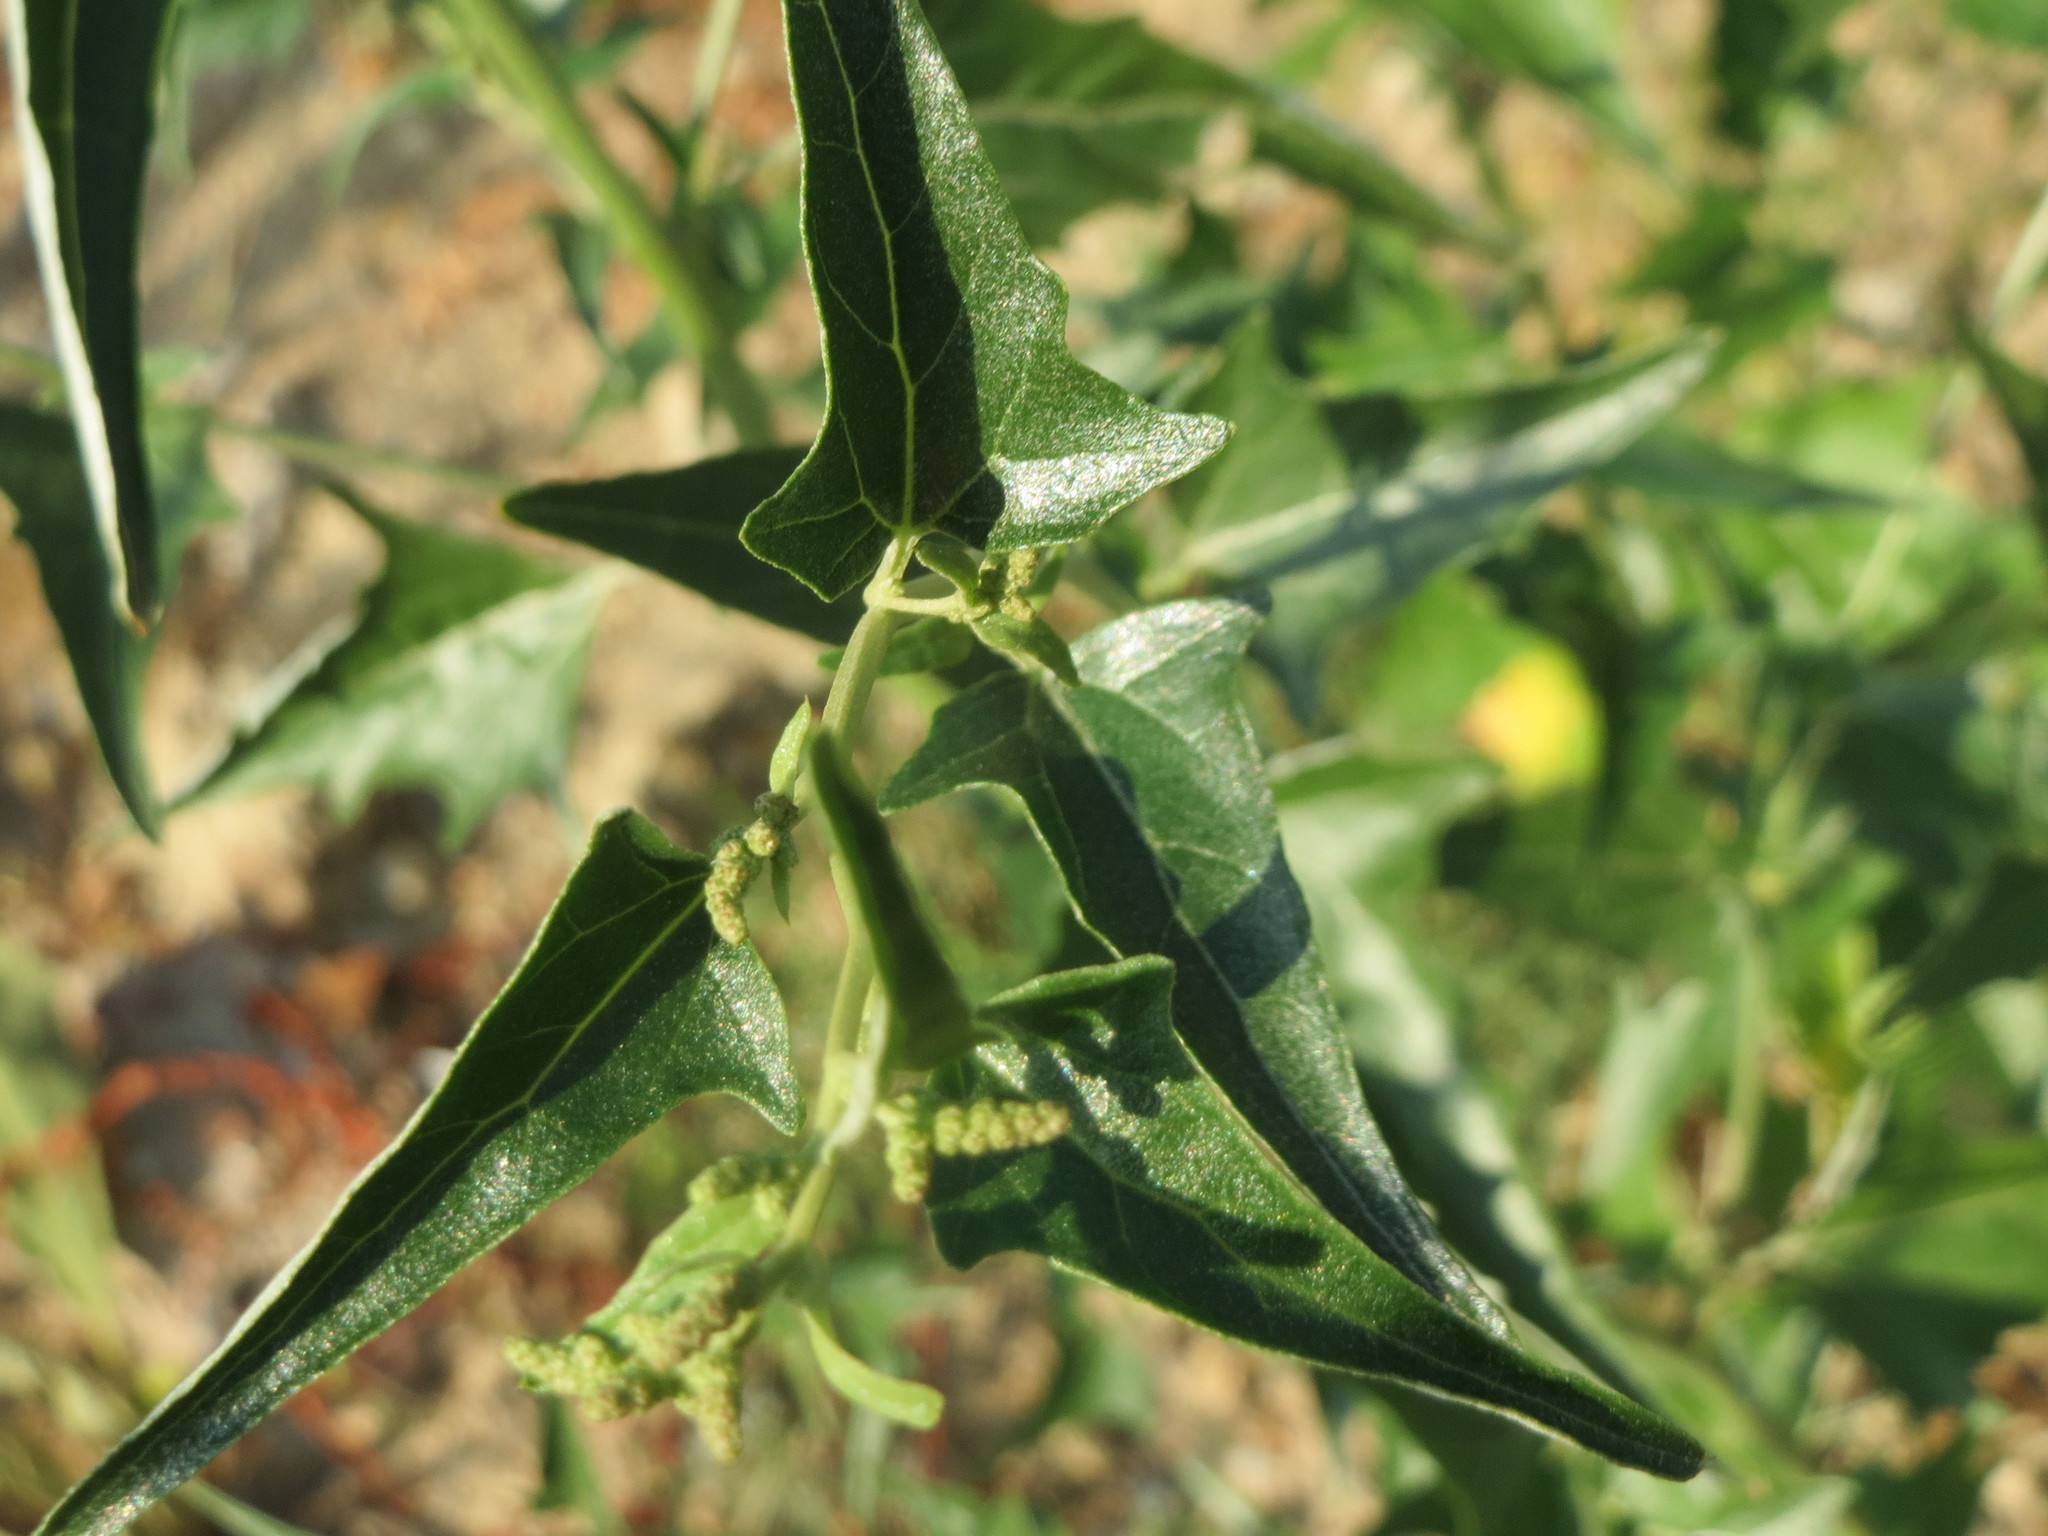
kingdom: Plantae
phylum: Tracheophyta
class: Magnoliopsida
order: Caryophyllales
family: Amaranthaceae
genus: Atriplex
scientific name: Atriplex sagittata
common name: Purple orache
